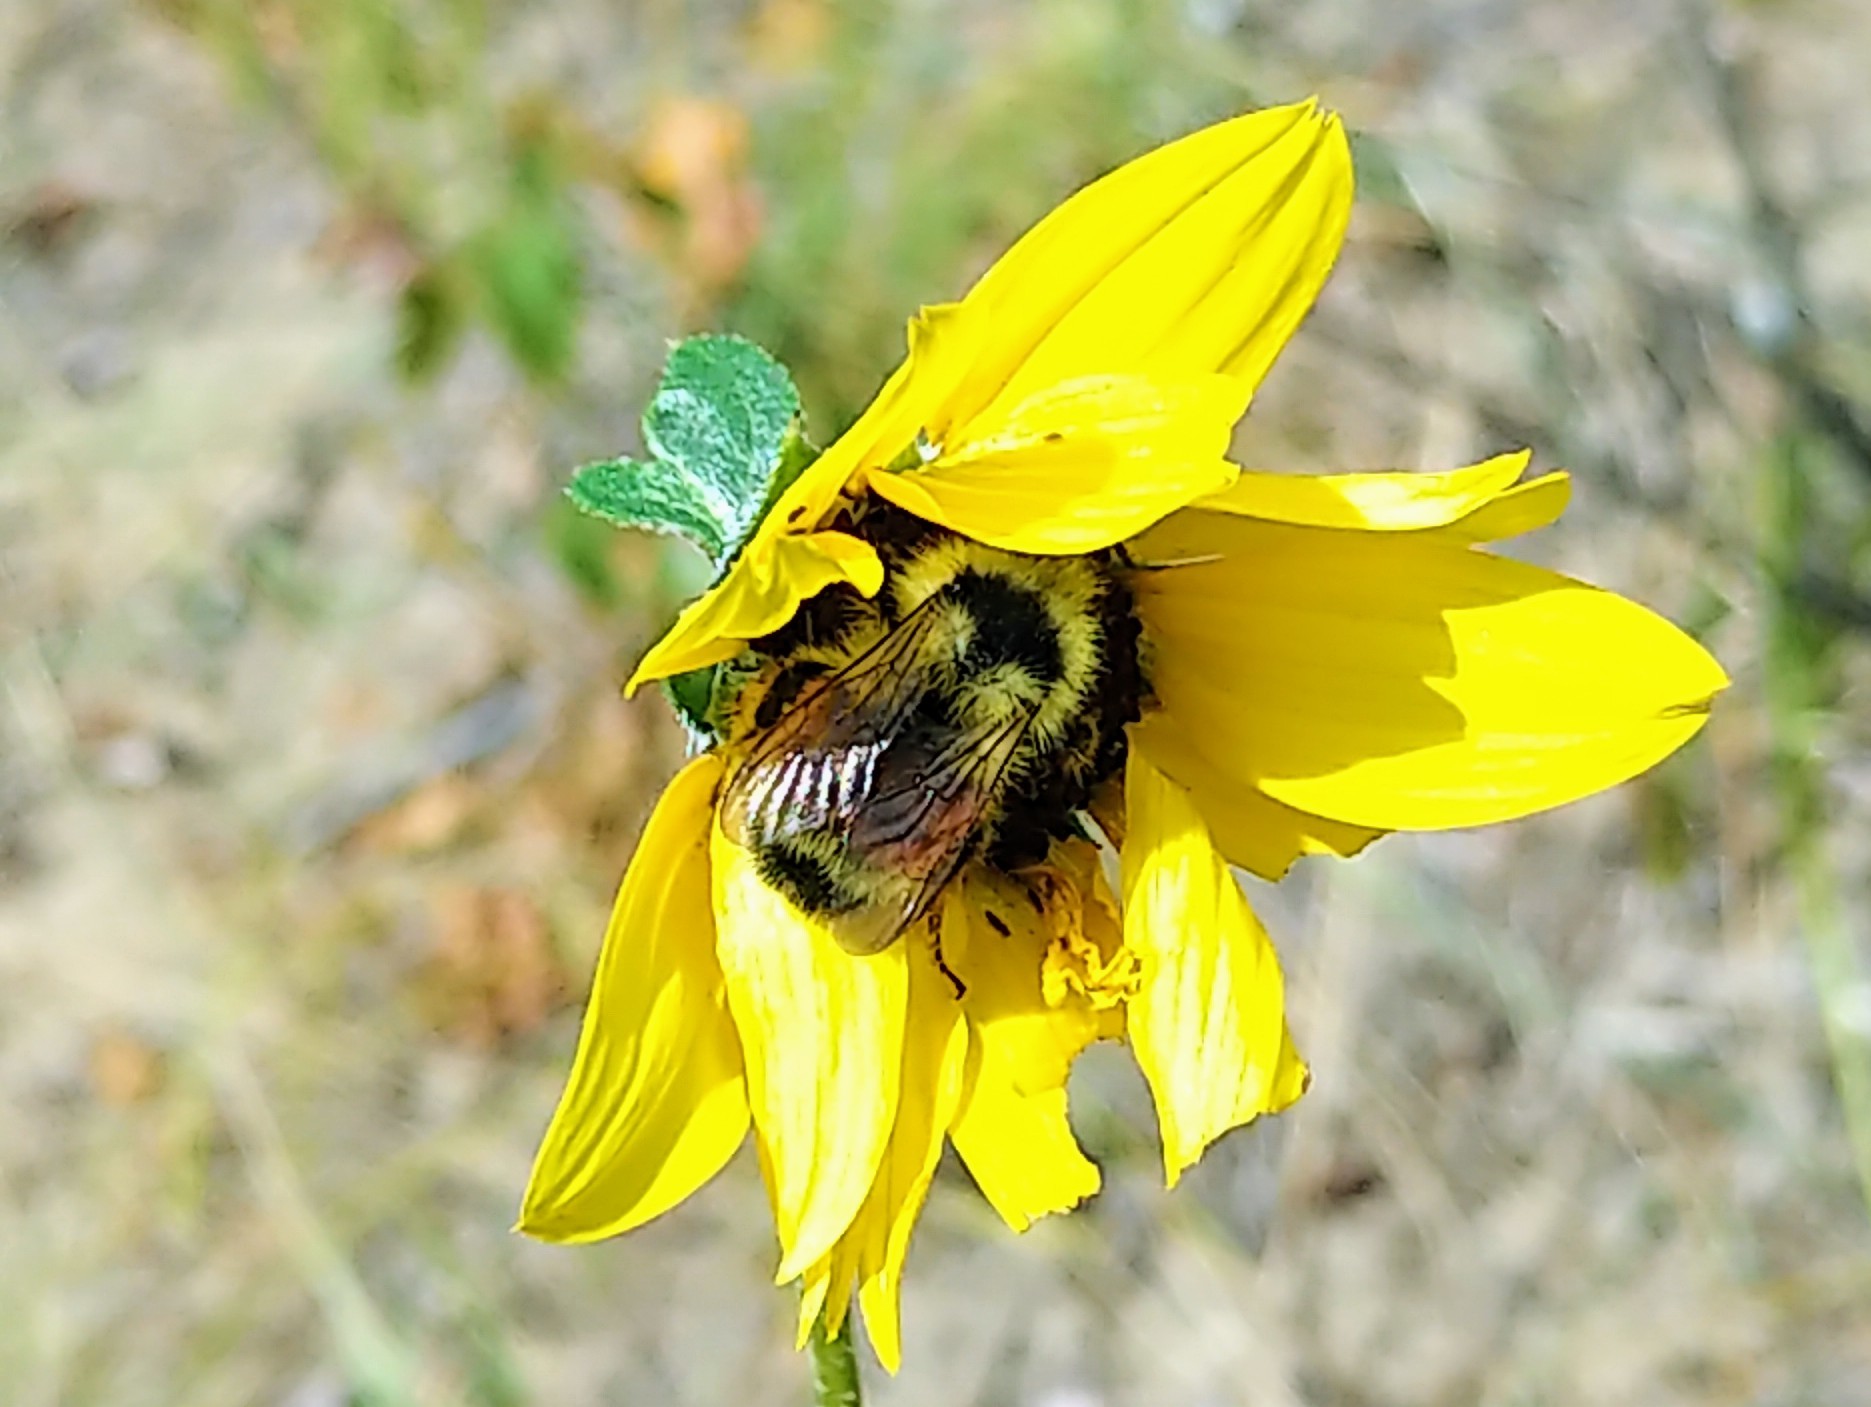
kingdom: Animalia
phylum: Arthropoda
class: Insecta
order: Hymenoptera
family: Apidae
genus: Bombus
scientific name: Bombus ternarius
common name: Tri-colored bumble bee
